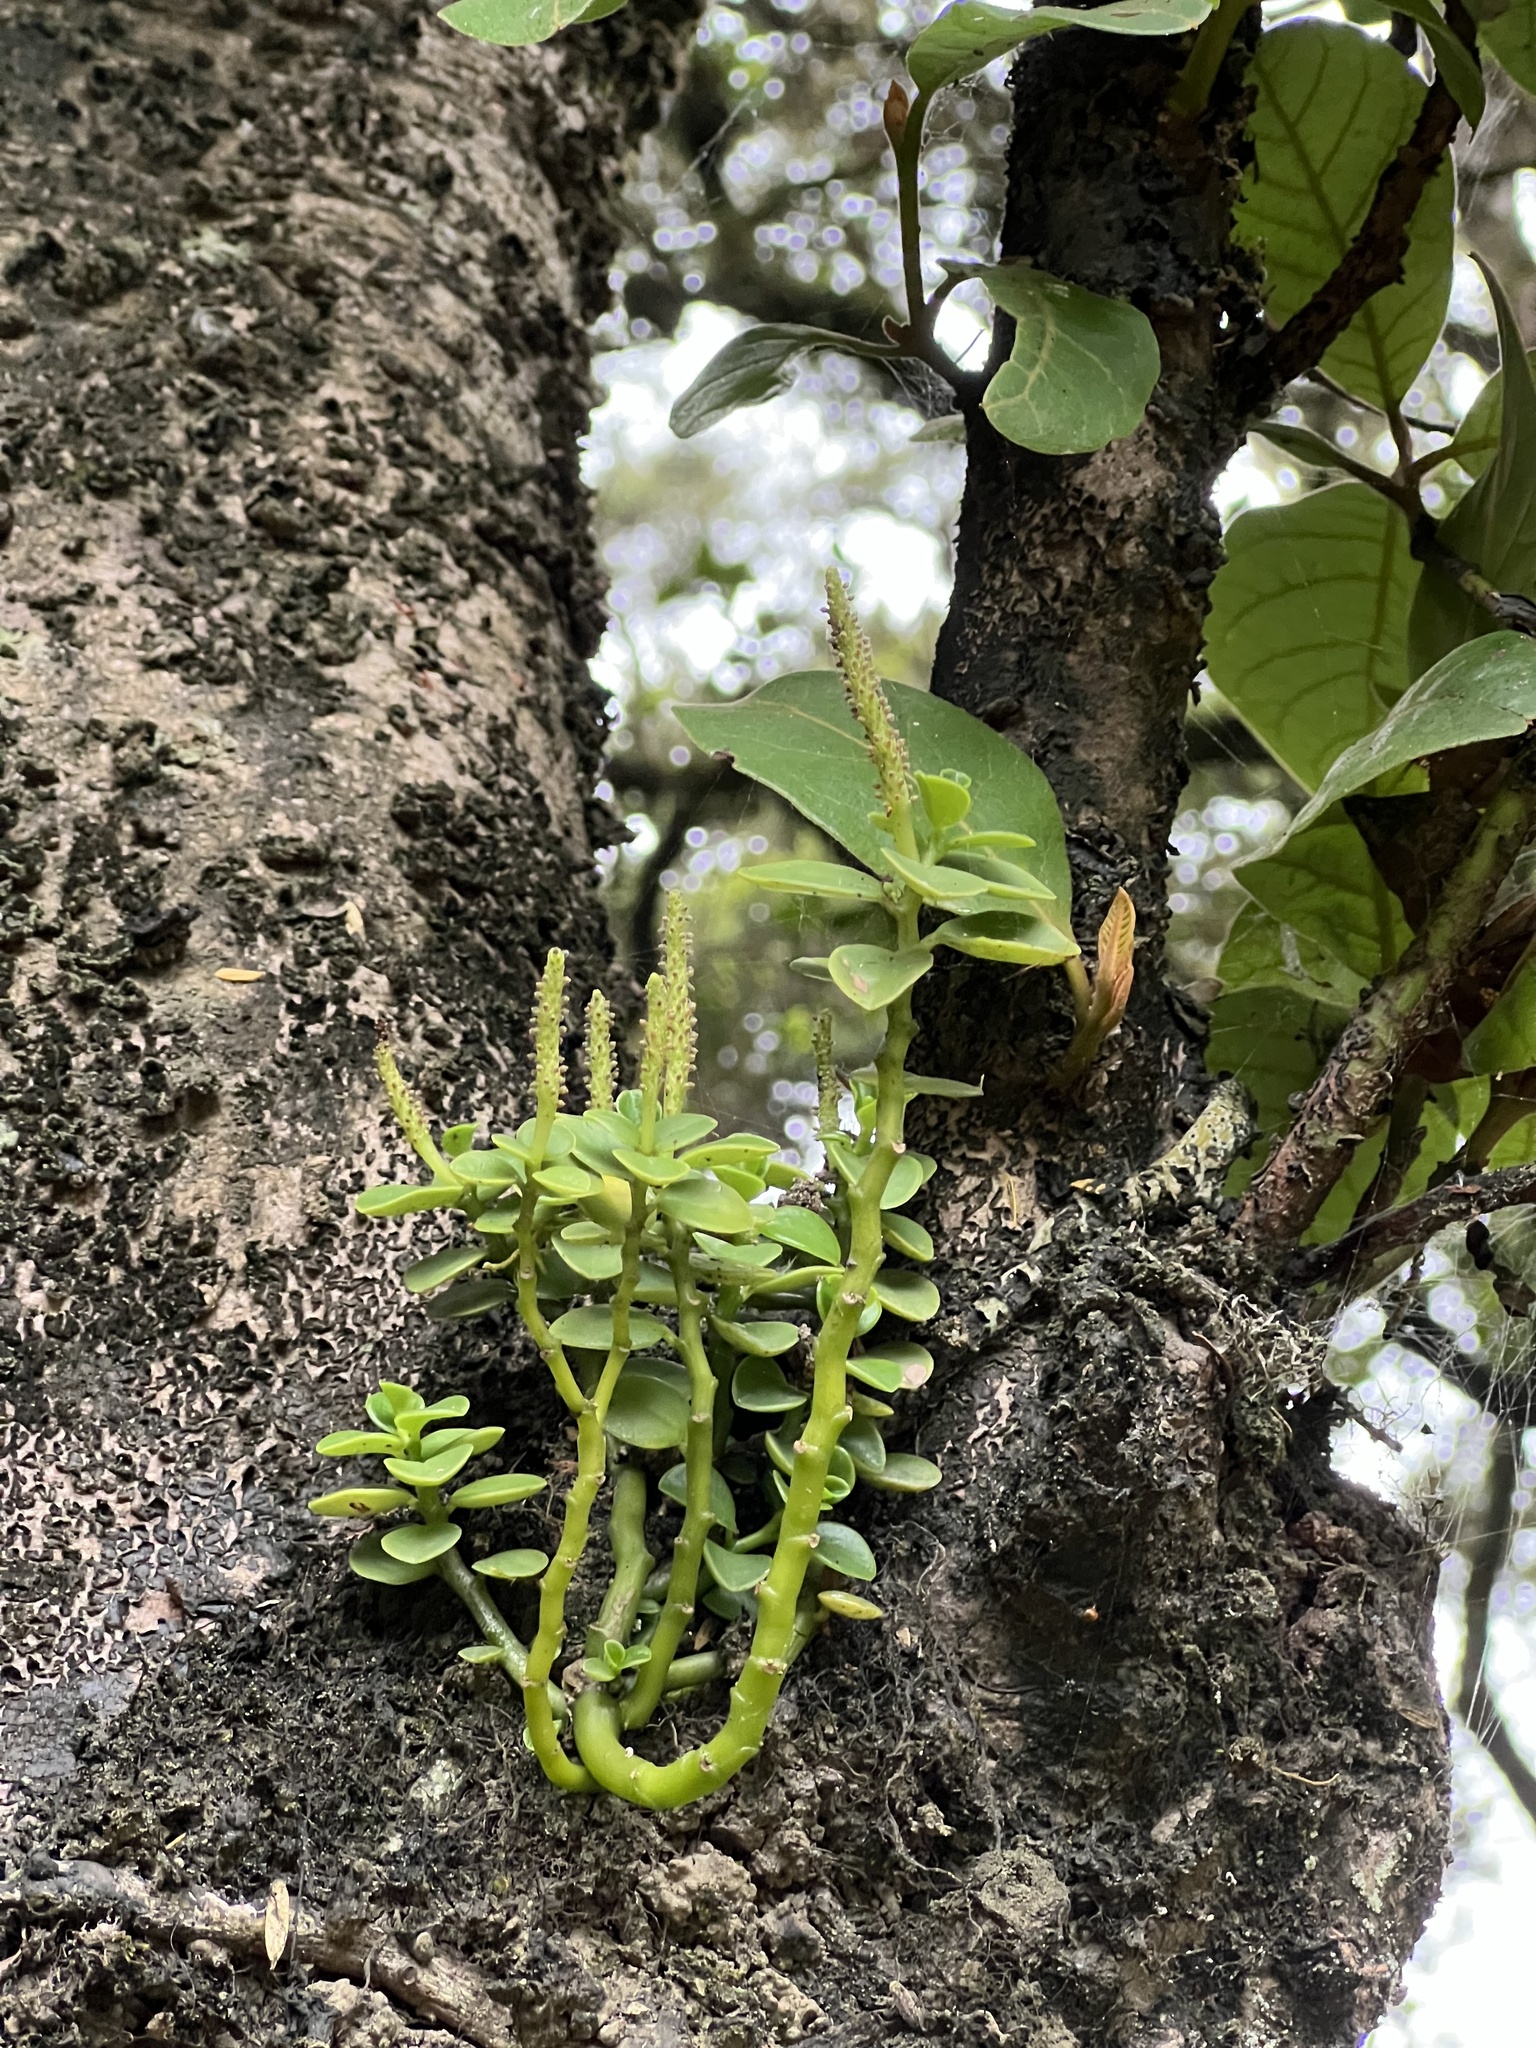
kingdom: Plantae
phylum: Tracheophyta
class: Magnoliopsida
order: Piperales
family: Piperaceae
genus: Peperomia
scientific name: Peperomia urvilleana
